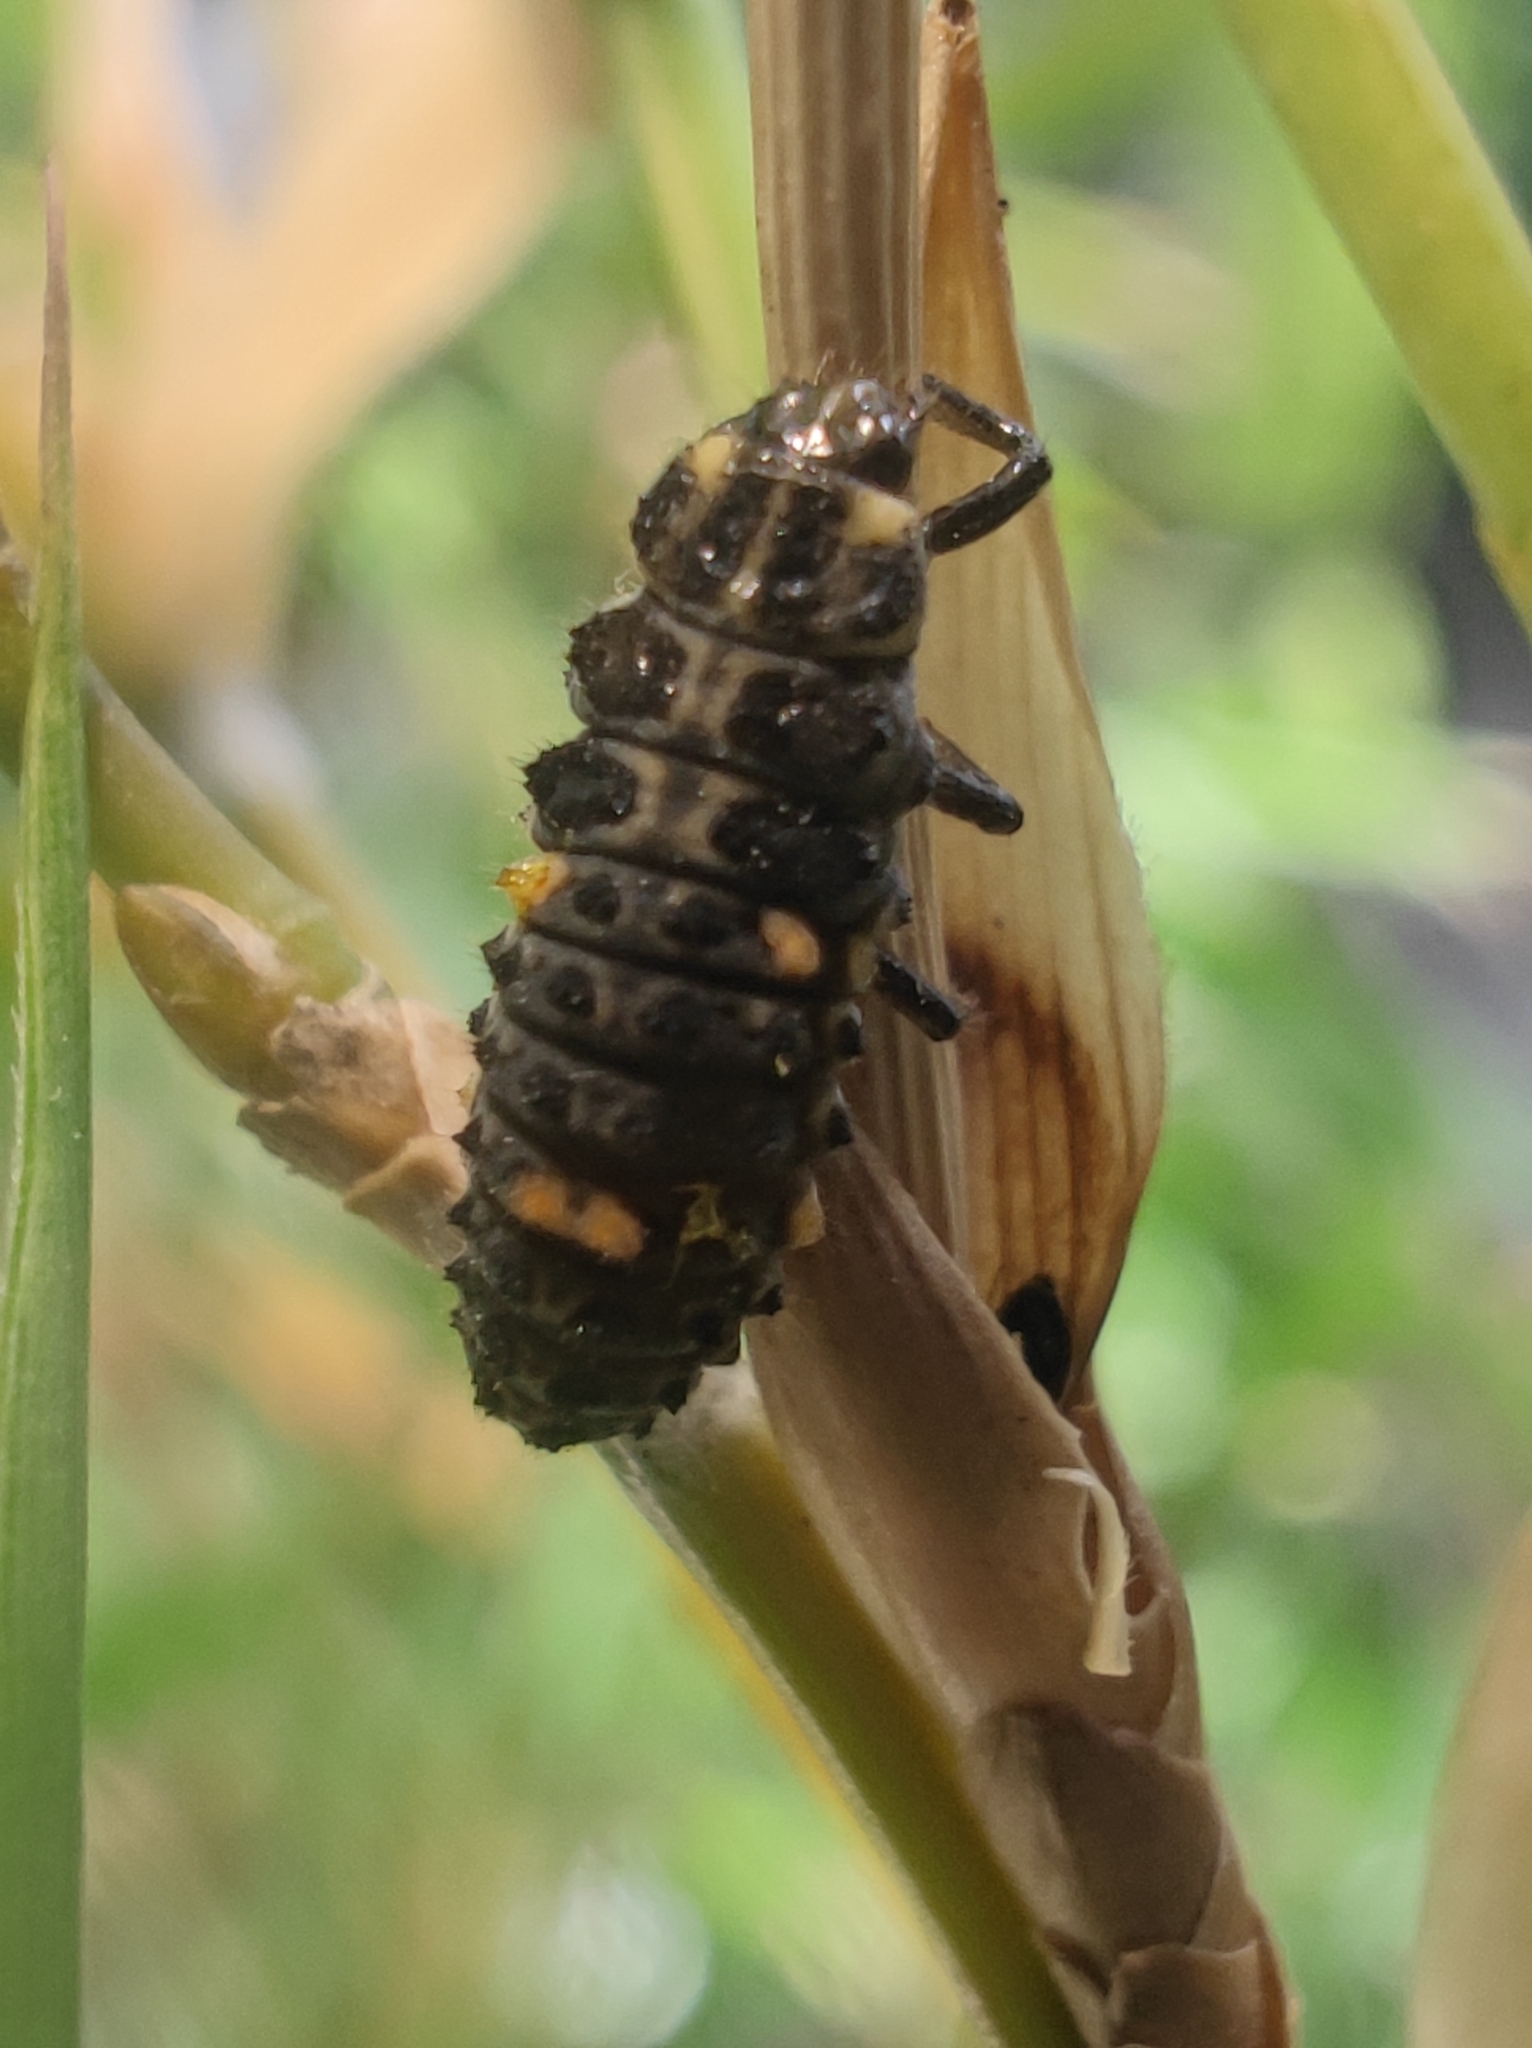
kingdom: Animalia
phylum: Arthropoda
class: Insecta
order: Coleoptera
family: Coccinellidae
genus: Adalia
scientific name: Adalia bipunctata
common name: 2-spot ladybird
